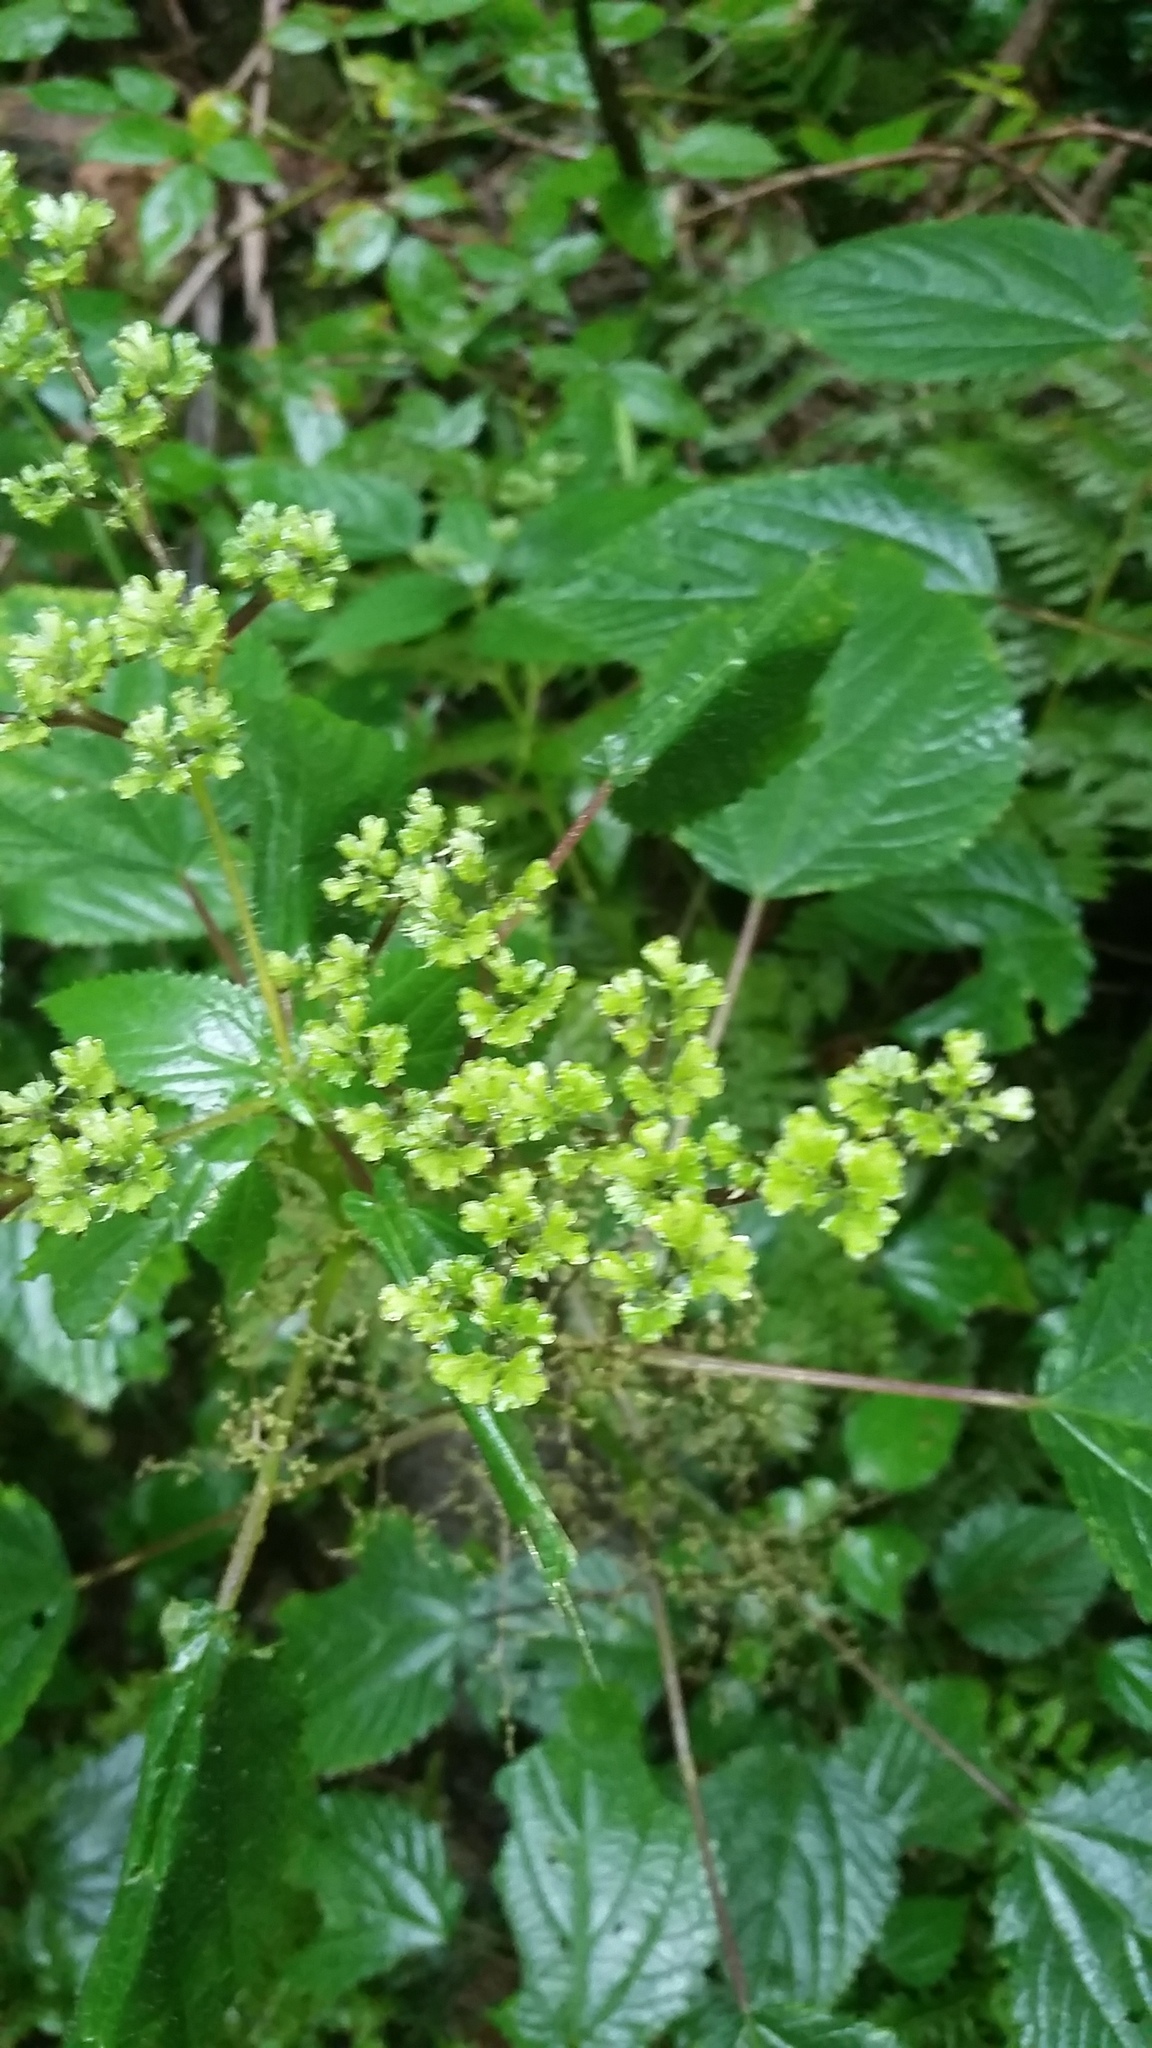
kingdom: Plantae
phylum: Tracheophyta
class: Magnoliopsida
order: Rosales
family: Urticaceae
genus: Laportea
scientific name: Laportea canadensis
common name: Canada nettle
